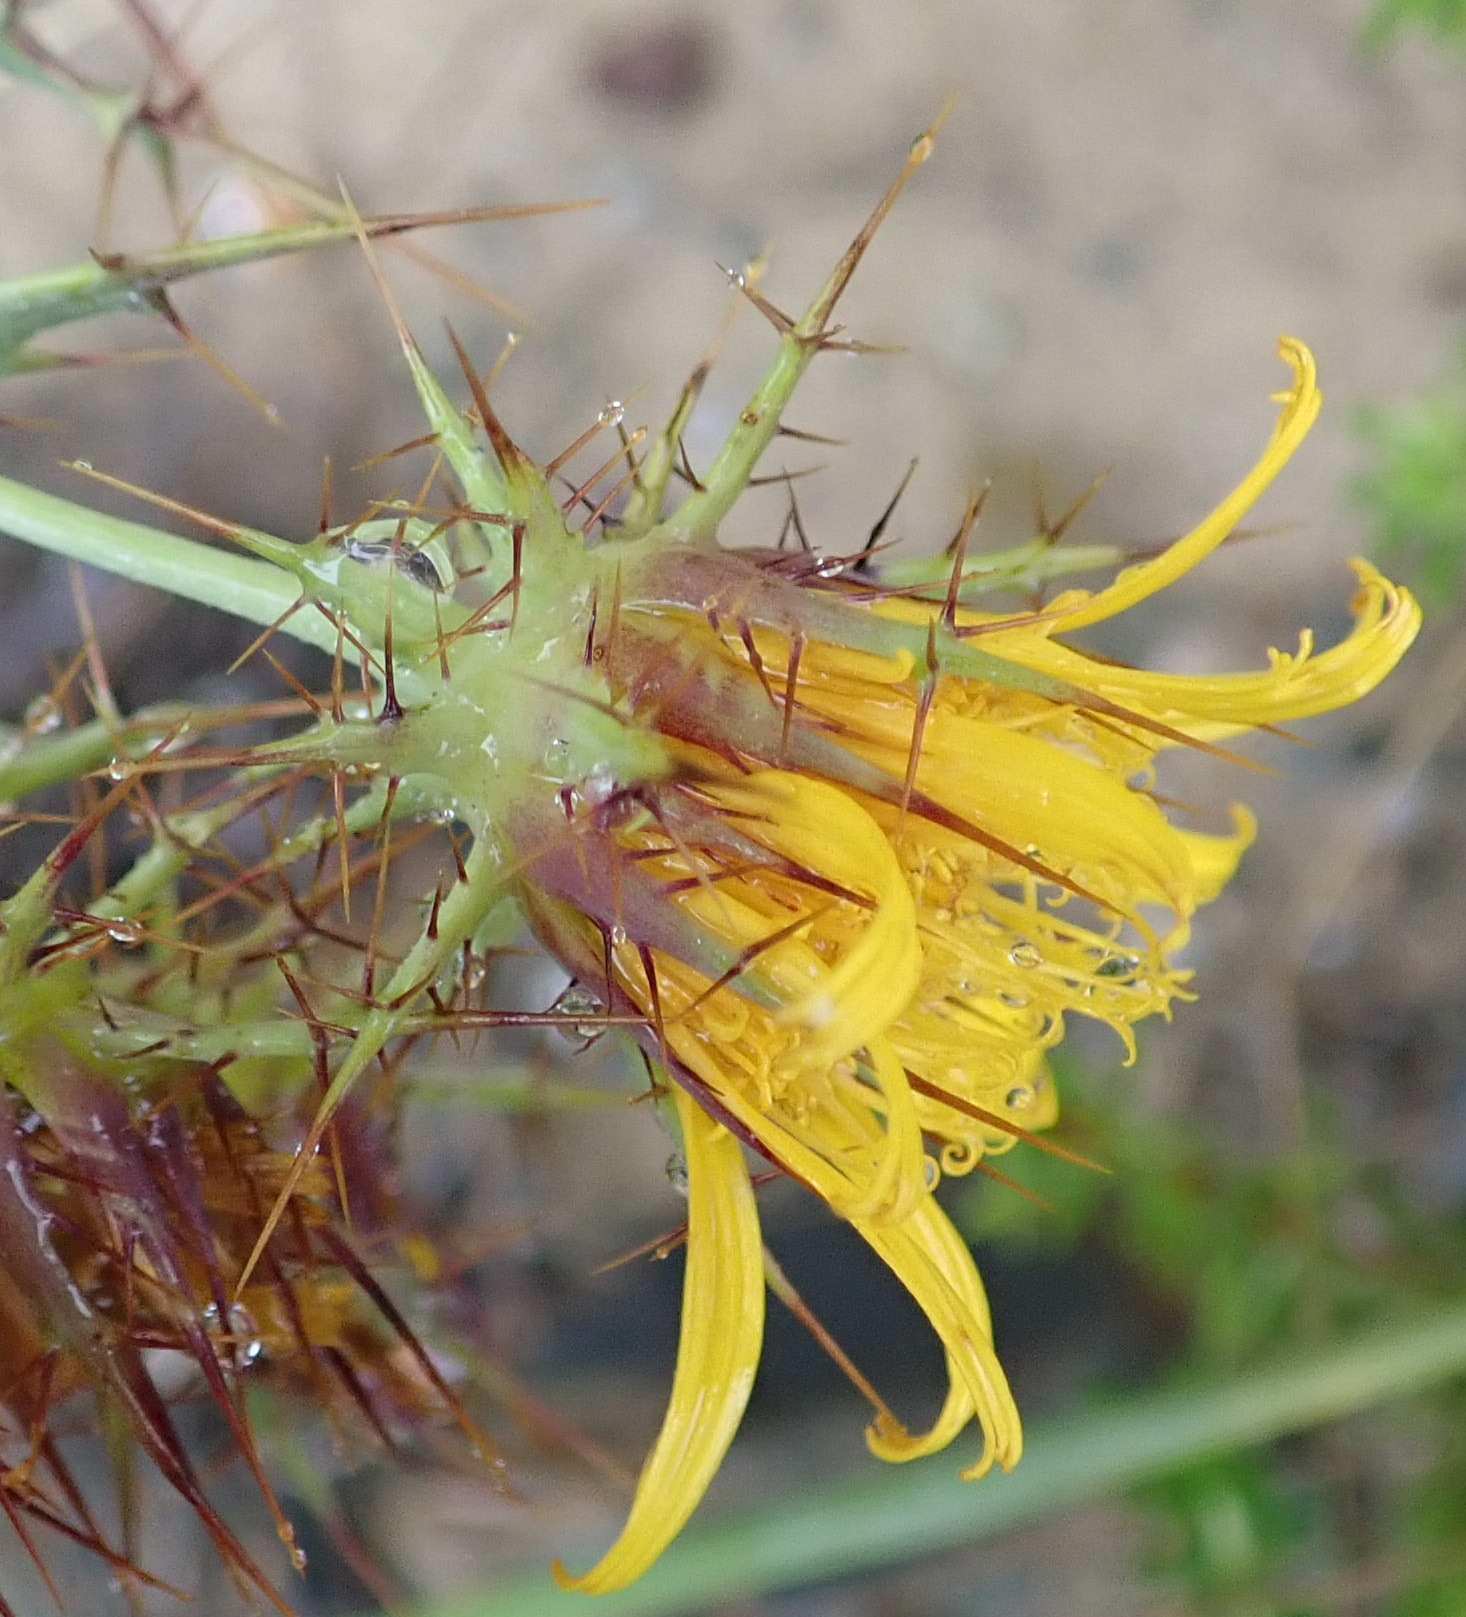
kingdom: Plantae
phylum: Tracheophyta
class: Magnoliopsida
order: Asterales
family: Asteraceae
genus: Berkheya
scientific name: Berkheya cruciata
